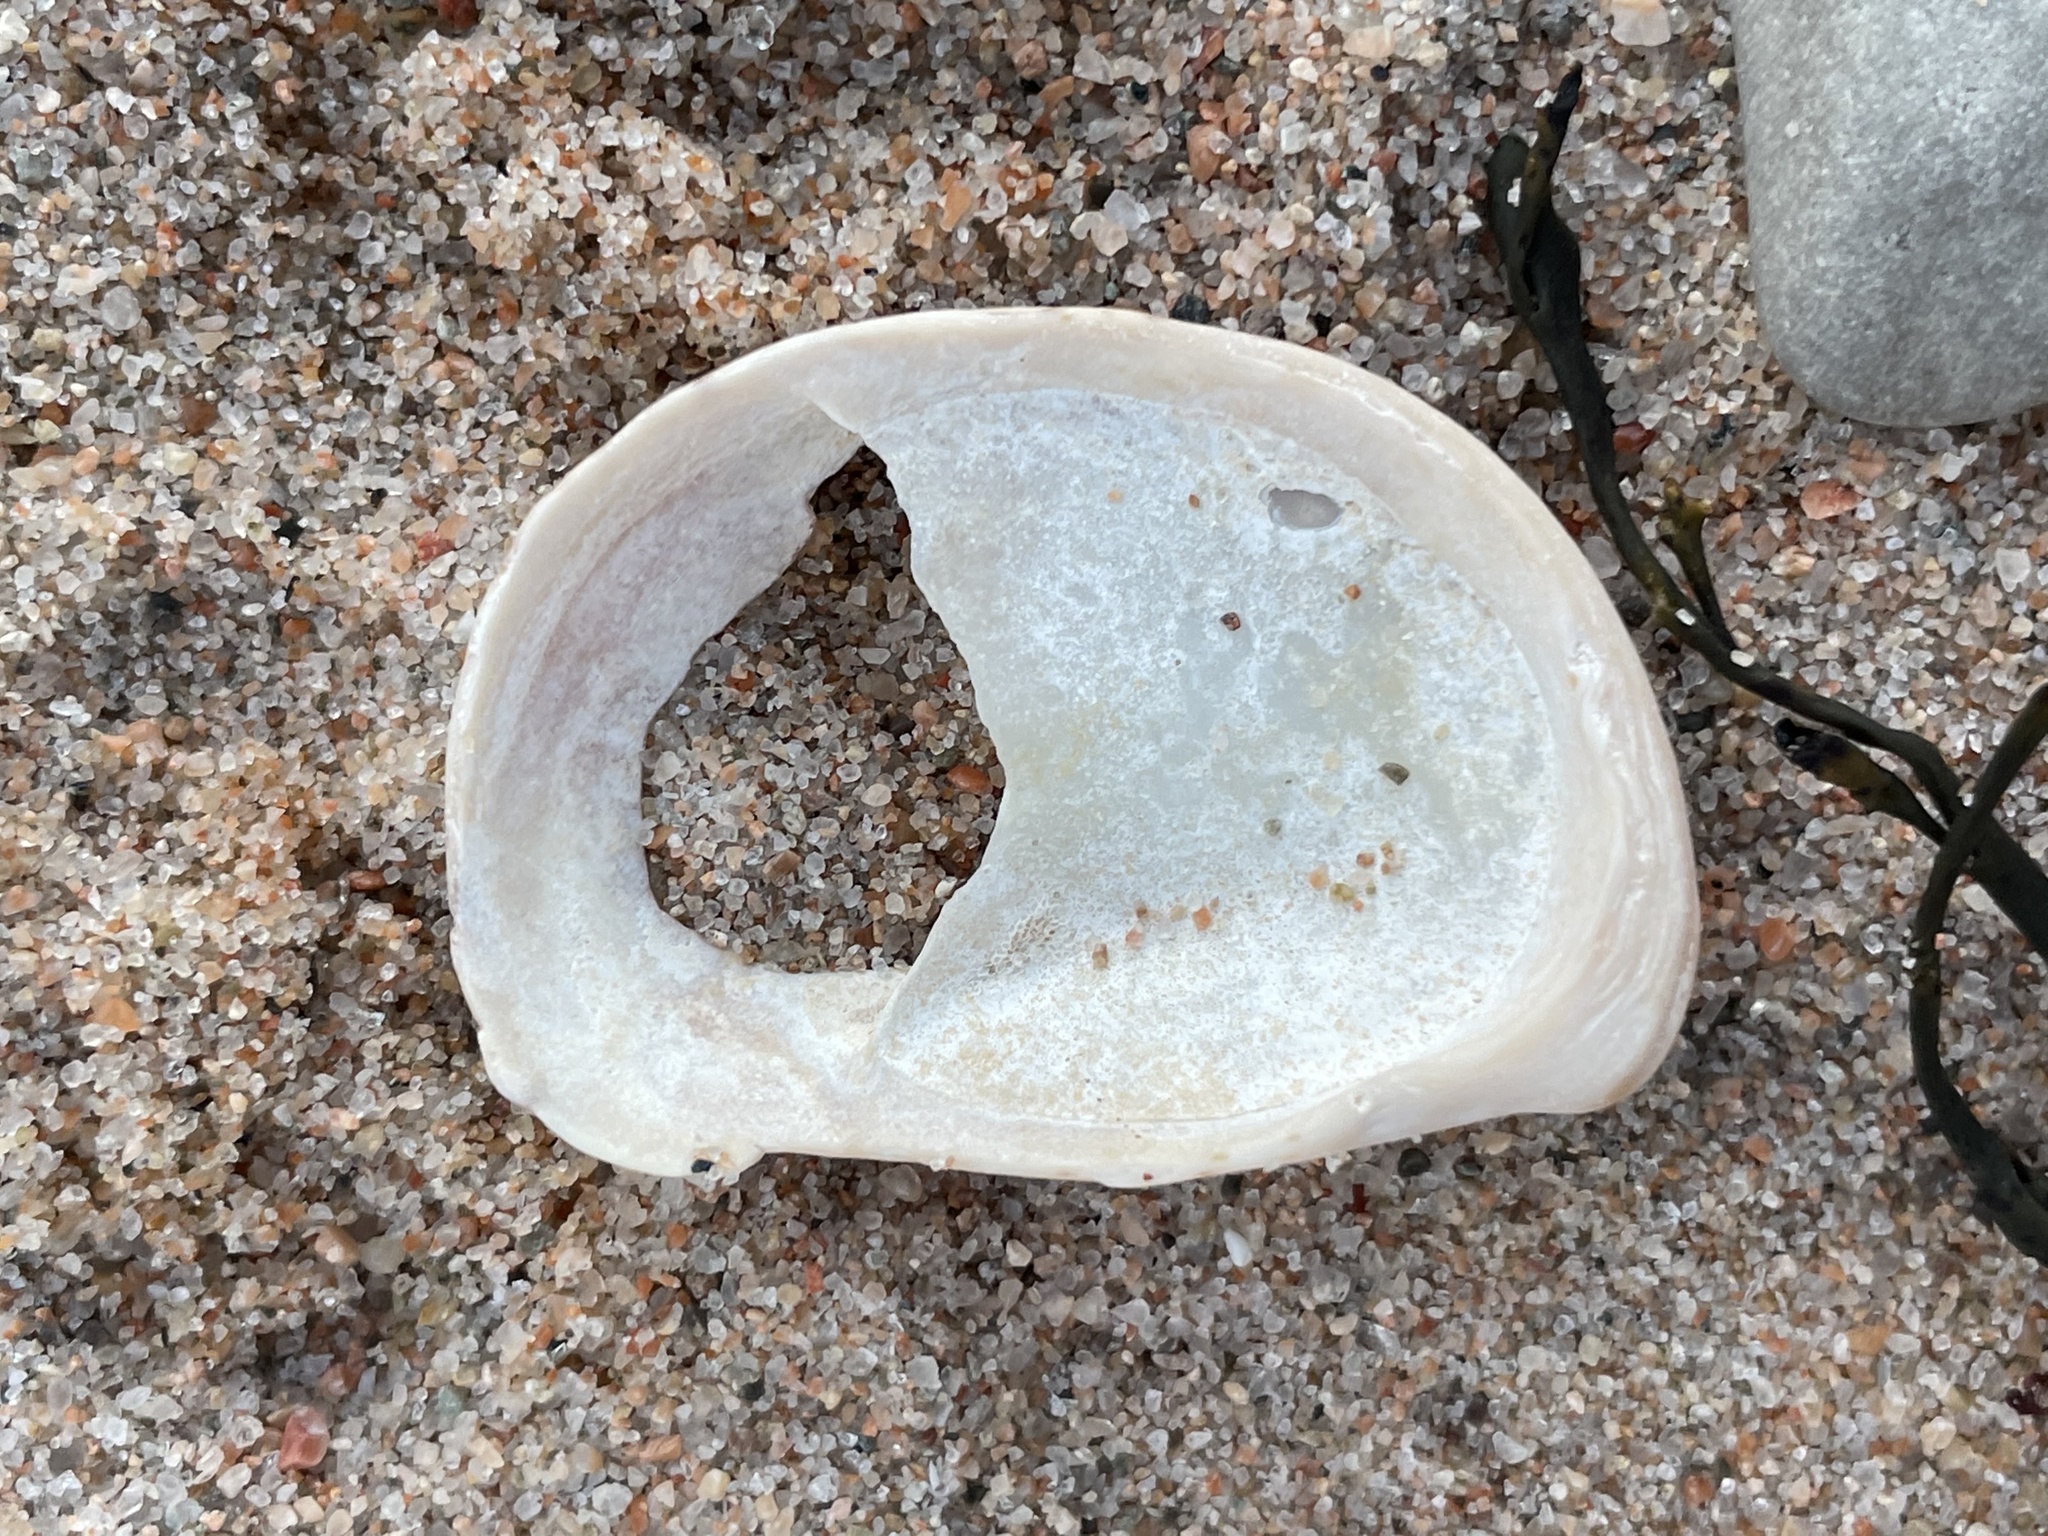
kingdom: Animalia
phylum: Mollusca
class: Gastropoda
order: Littorinimorpha
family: Calyptraeidae
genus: Crepidula
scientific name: Crepidula fornicata
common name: Slipper limpet
